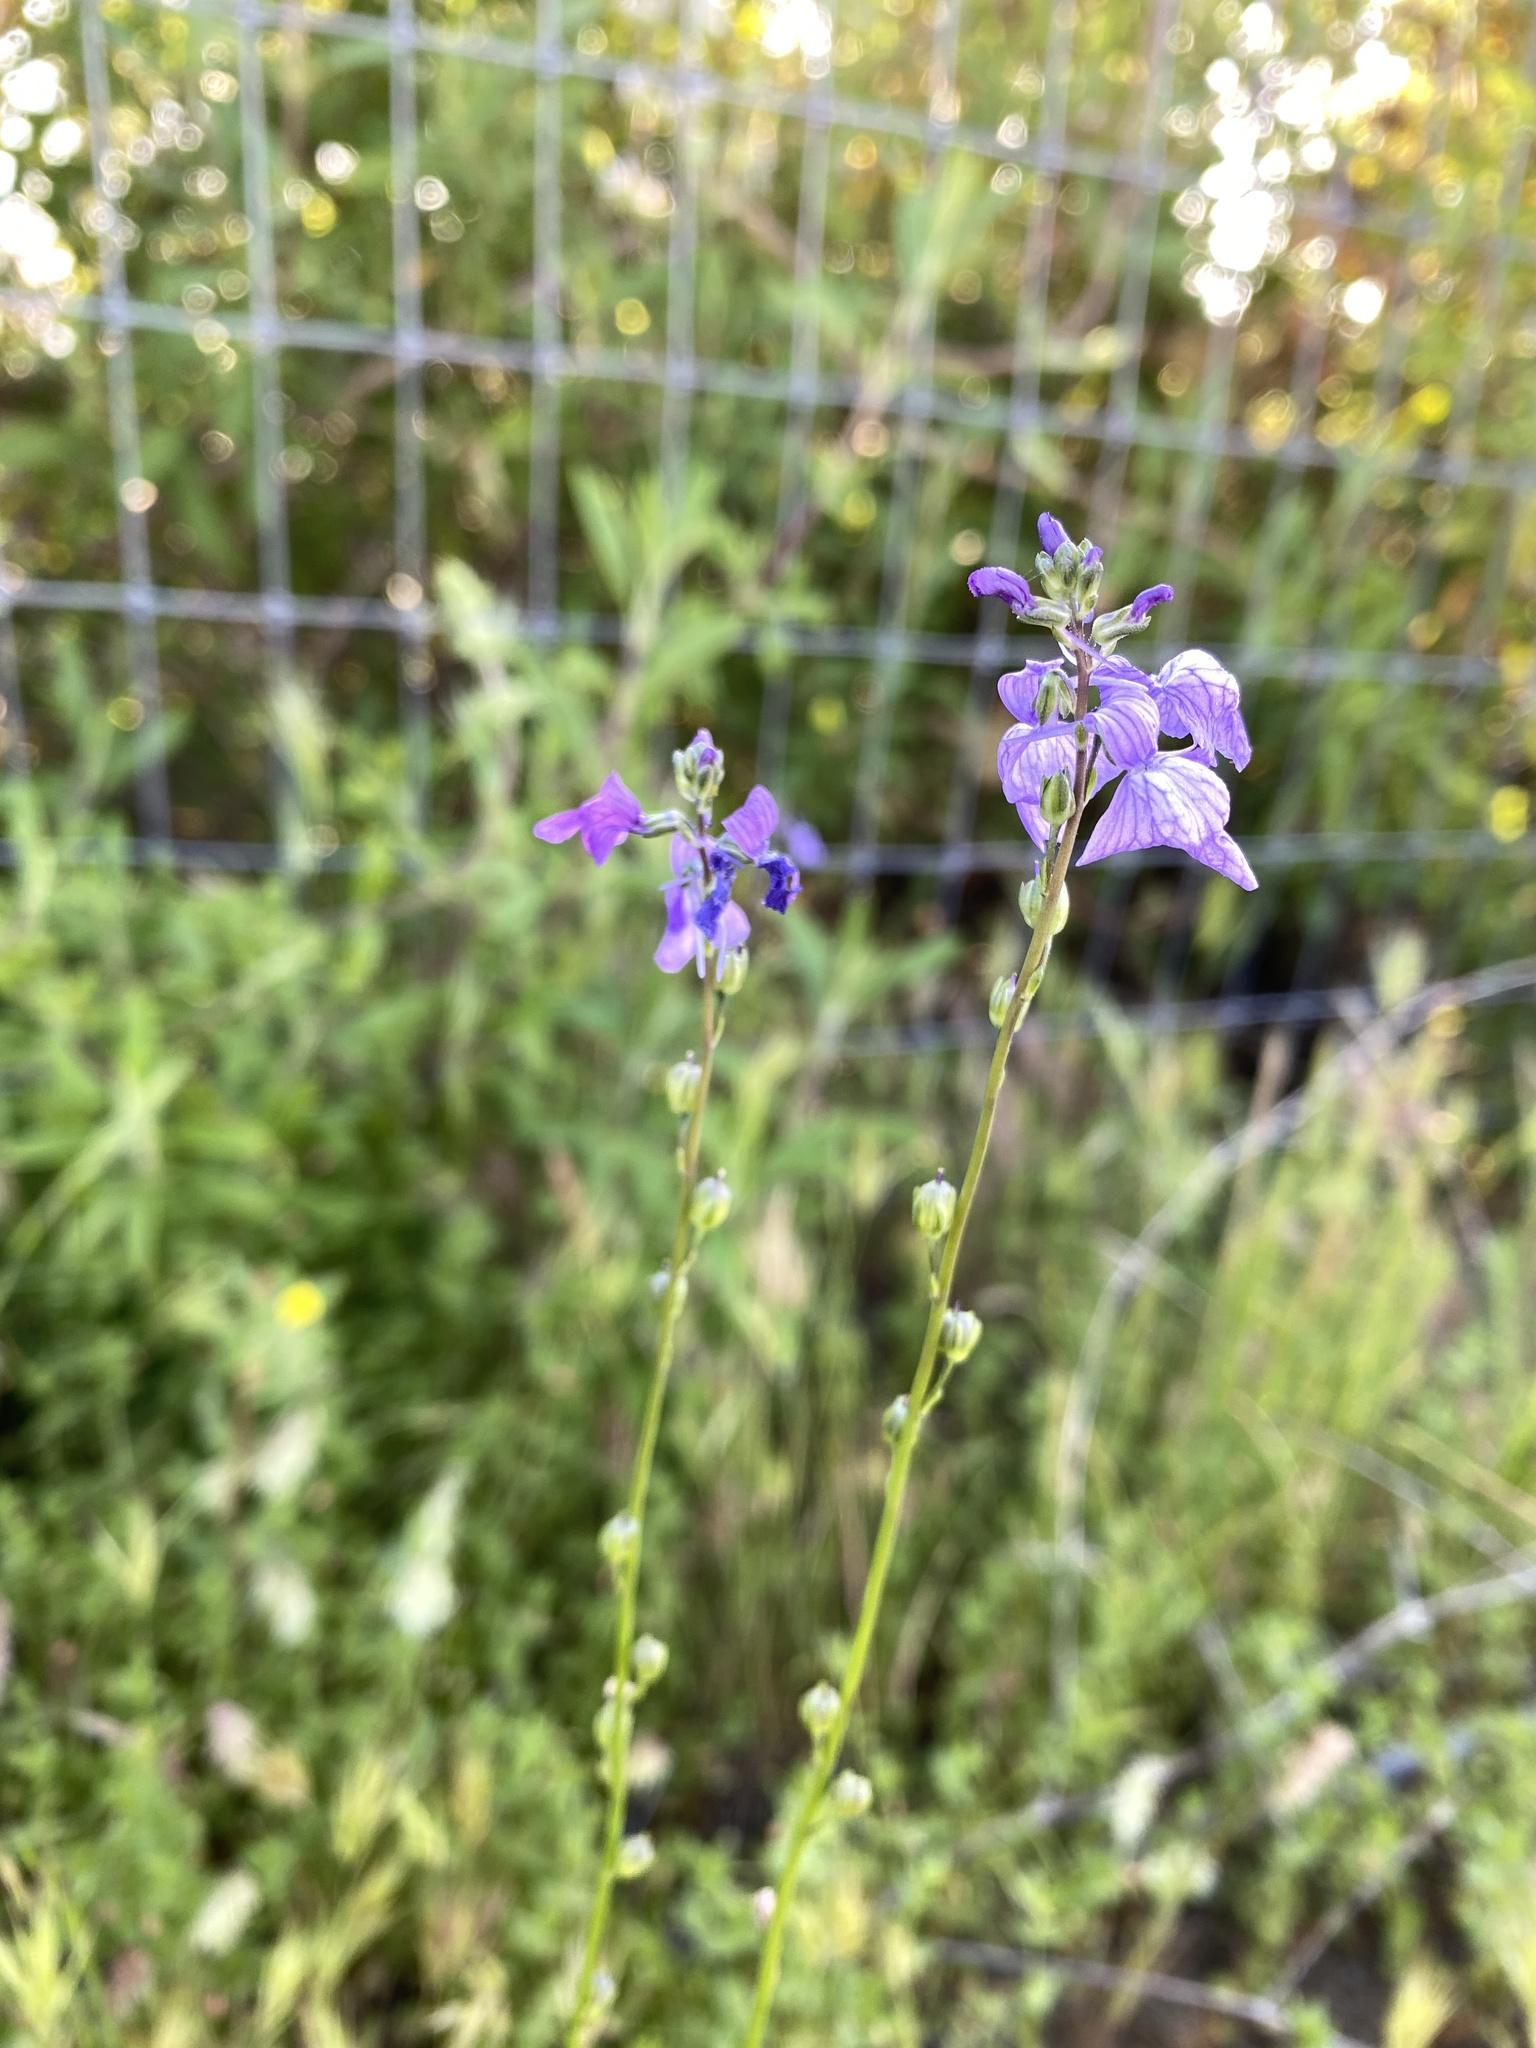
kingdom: Plantae
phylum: Tracheophyta
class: Magnoliopsida
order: Lamiales
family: Plantaginaceae
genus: Nuttallanthus
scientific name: Nuttallanthus texanus
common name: Texas toadflax
